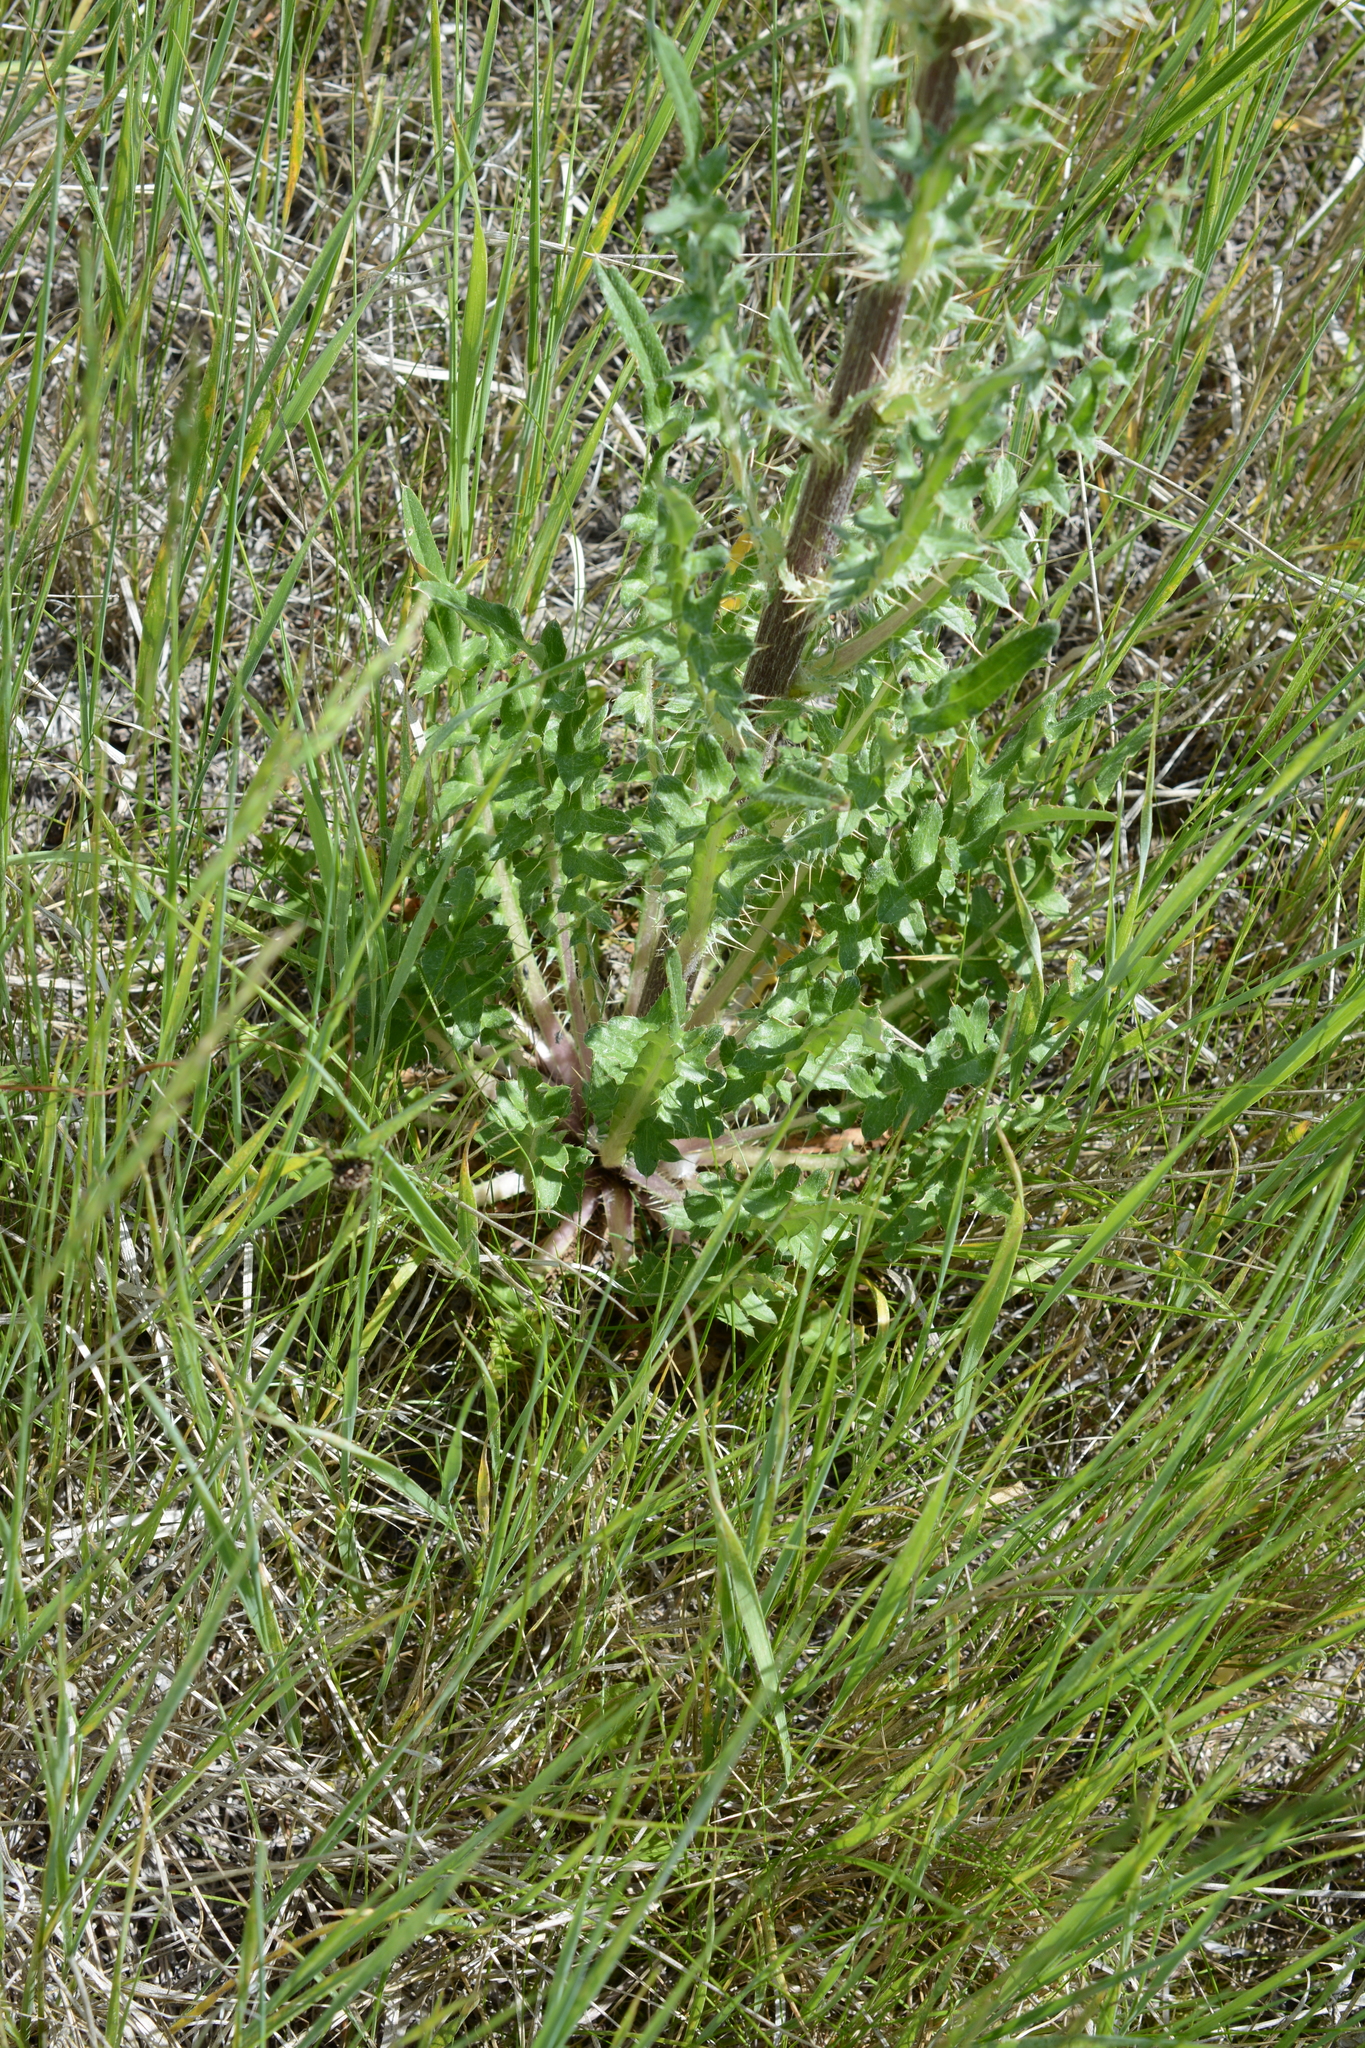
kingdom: Plantae
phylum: Tracheophyta
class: Magnoliopsida
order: Asterales
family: Asteraceae
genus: Cirsium
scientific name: Cirsium hookerianum
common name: Hooker's thistle
